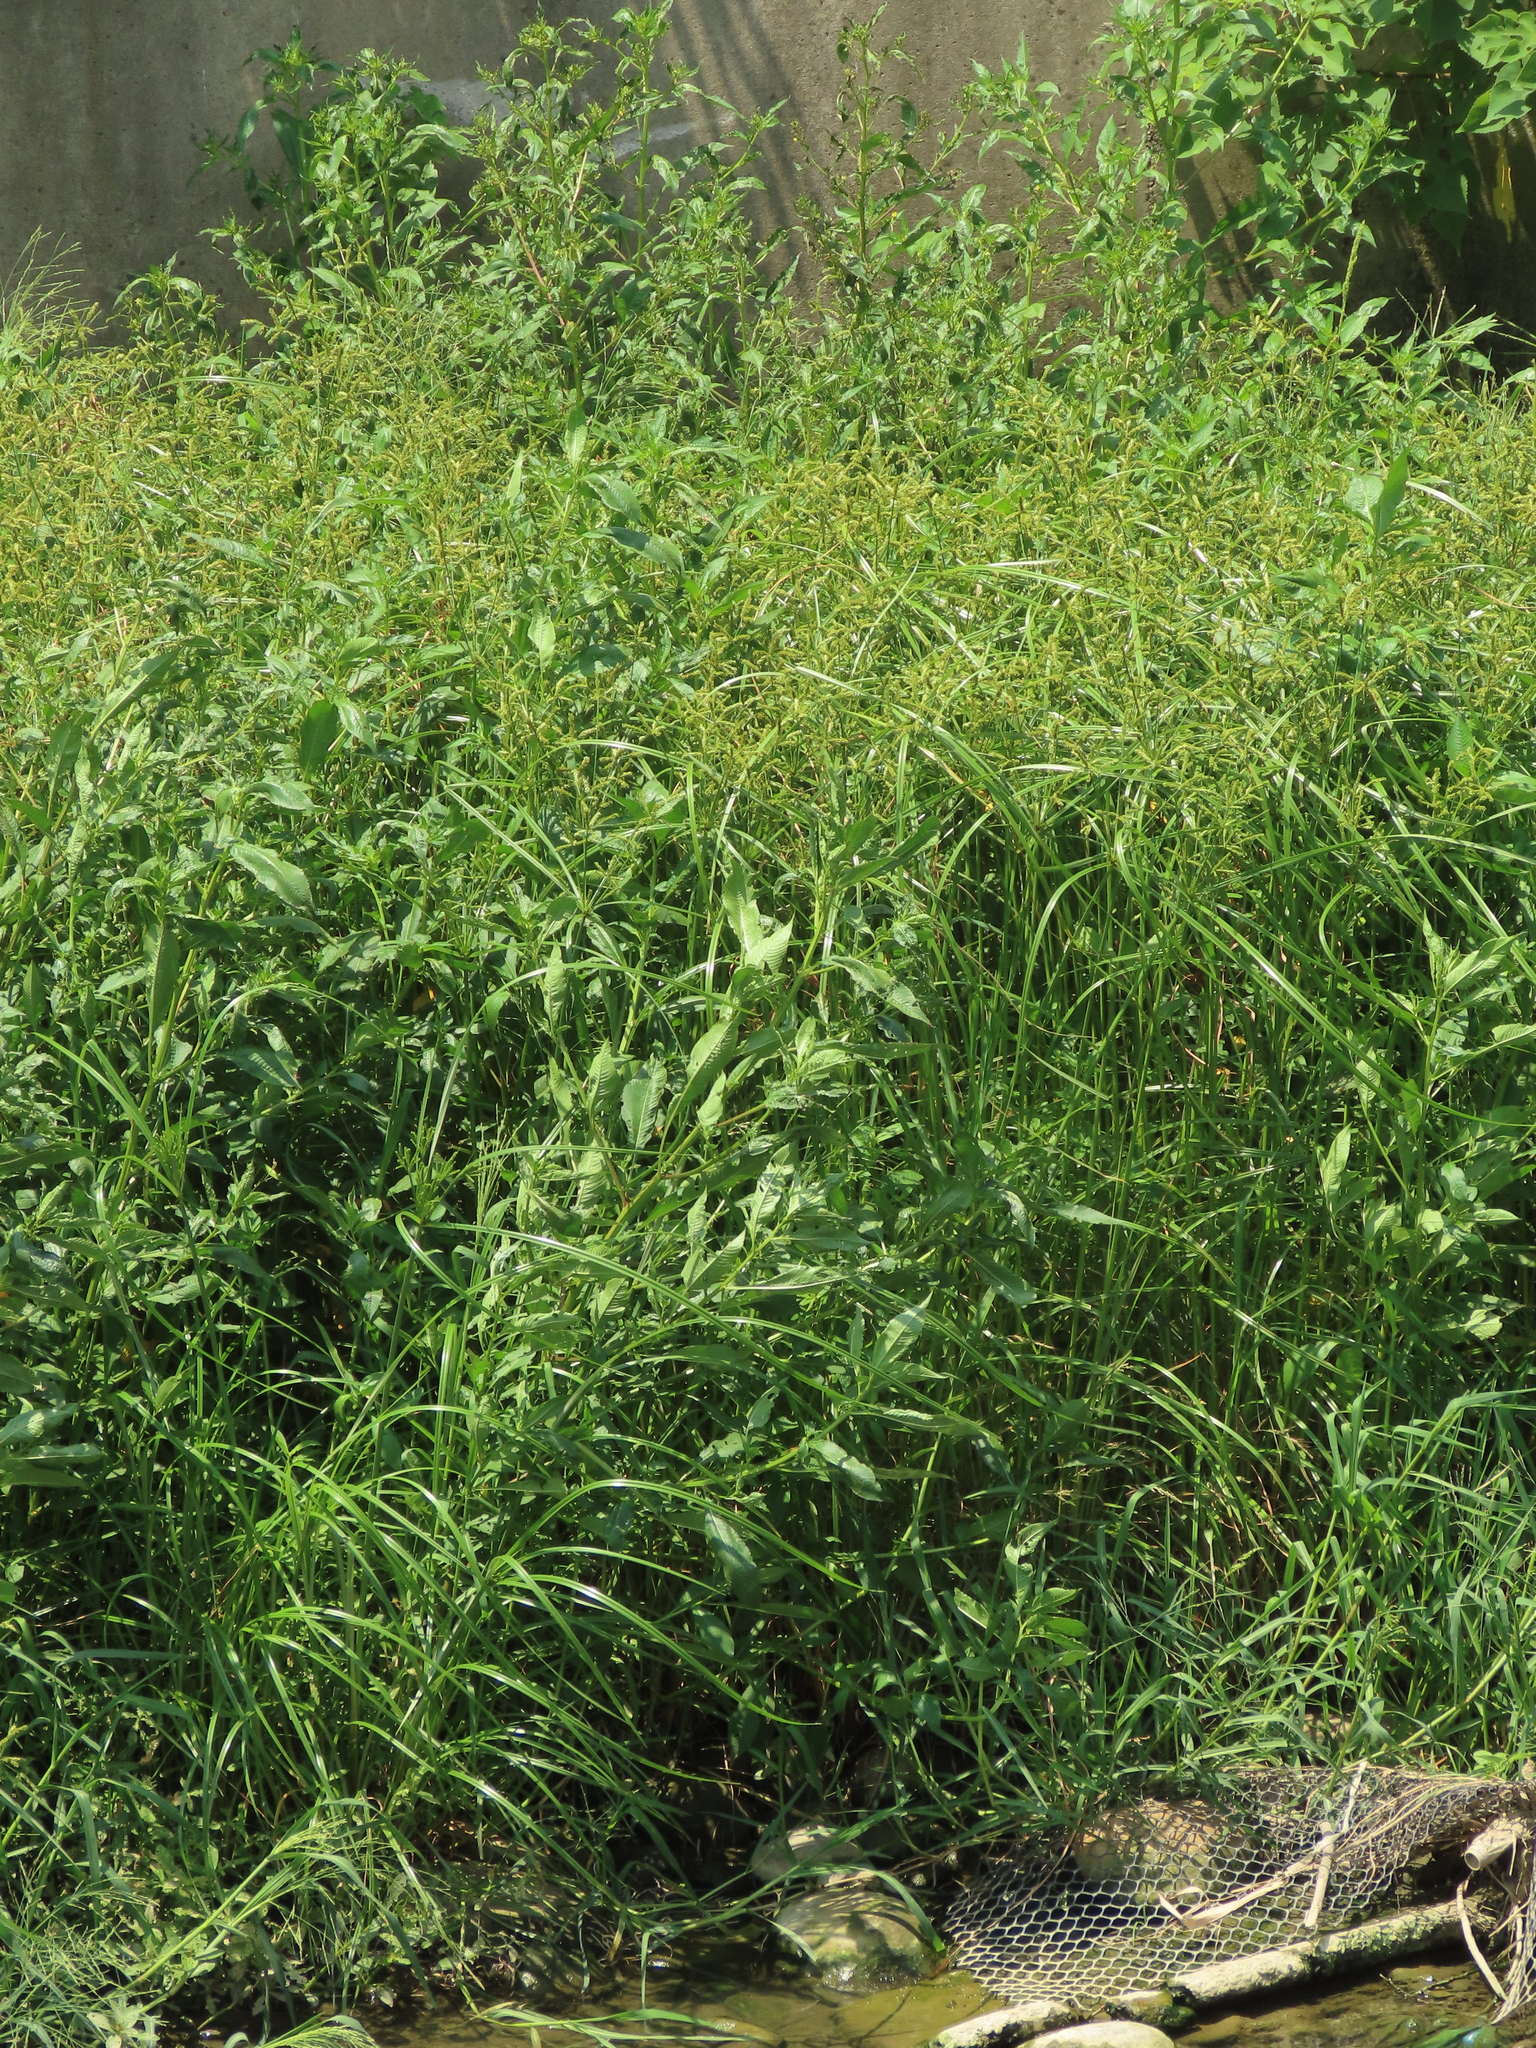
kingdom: Plantae
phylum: Tracheophyta
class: Liliopsida
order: Poales
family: Cyperaceae
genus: Cyperus
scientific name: Cyperus imbricatus
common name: Shingle flatsedge
